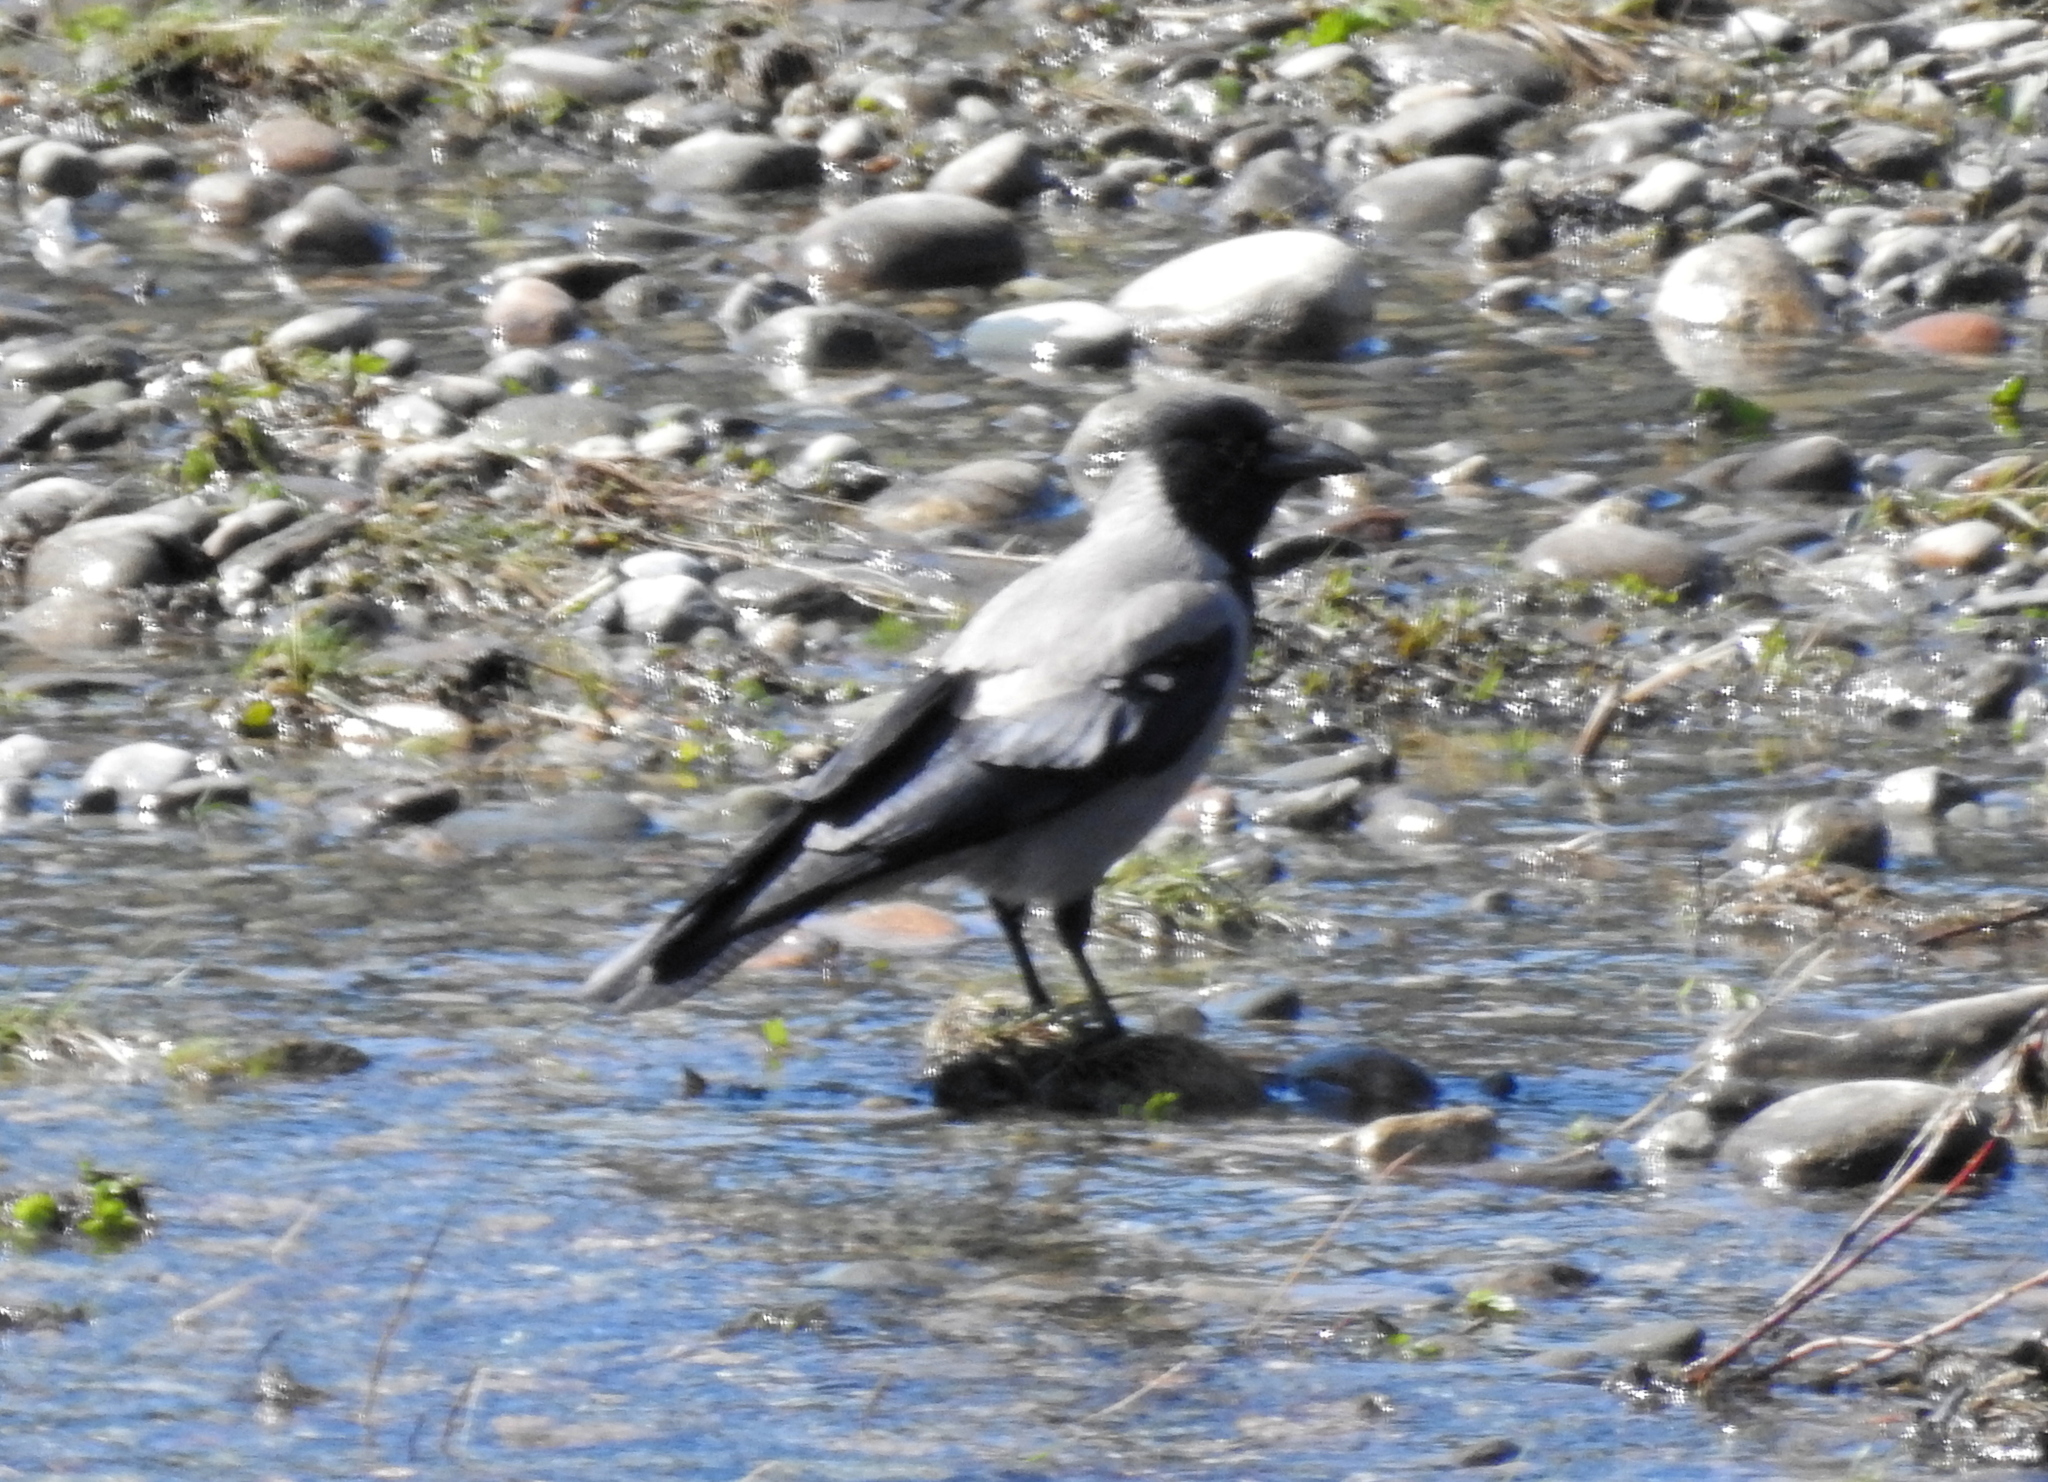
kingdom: Animalia
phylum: Chordata
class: Aves
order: Passeriformes
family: Corvidae
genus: Corvus
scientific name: Corvus cornix
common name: Hooded crow
